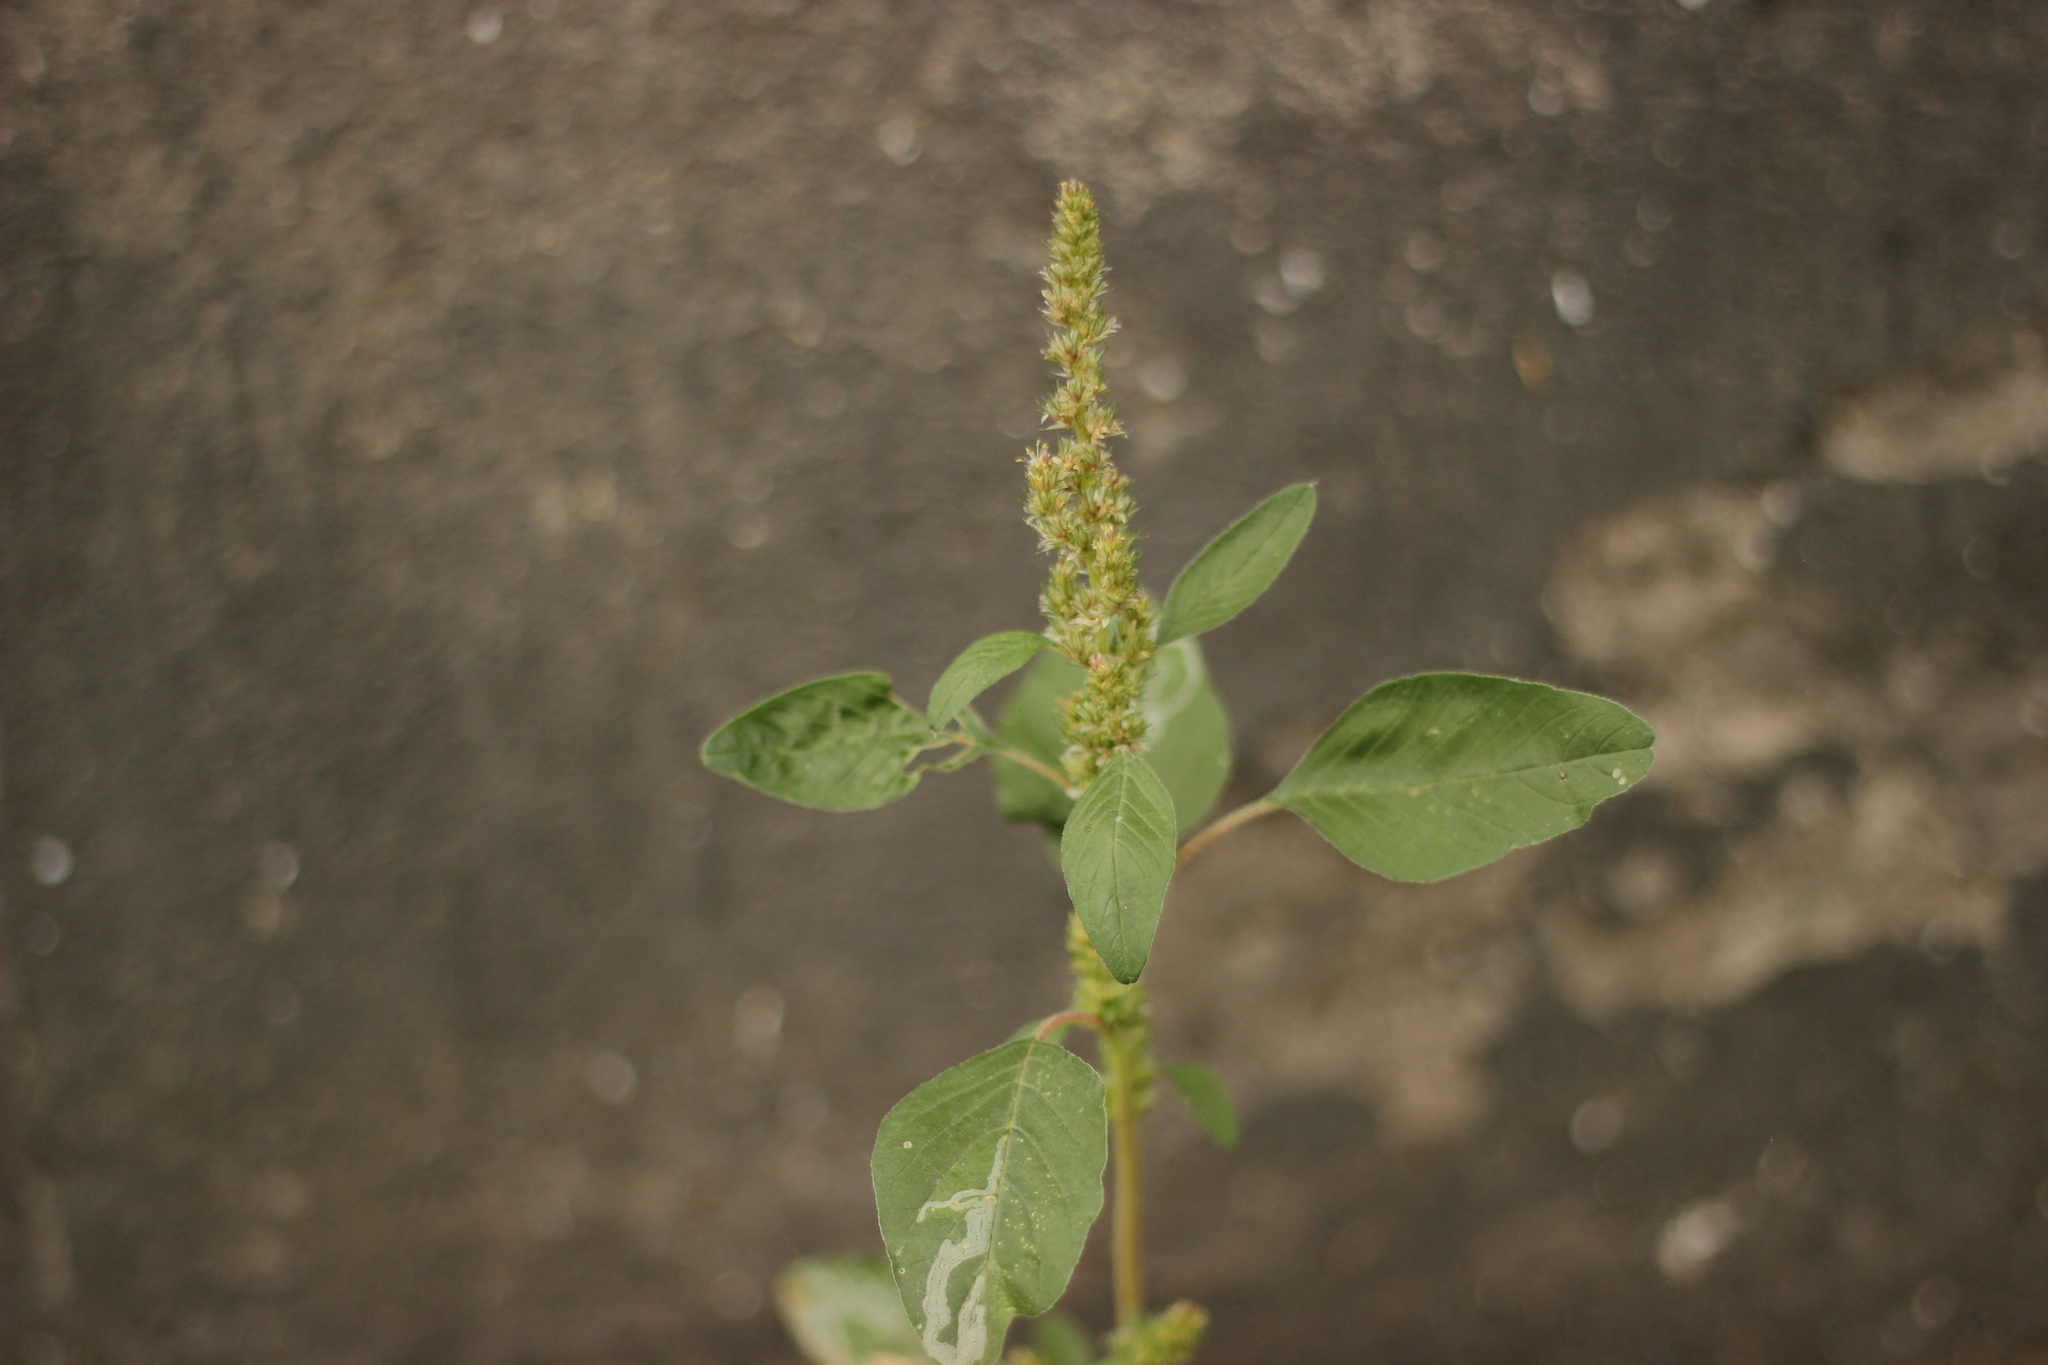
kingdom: Plantae
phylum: Tracheophyta
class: Magnoliopsida
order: Caryophyllales
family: Amaranthaceae
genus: Amaranthus
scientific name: Amaranthus retroflexus
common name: Redroot amaranth
